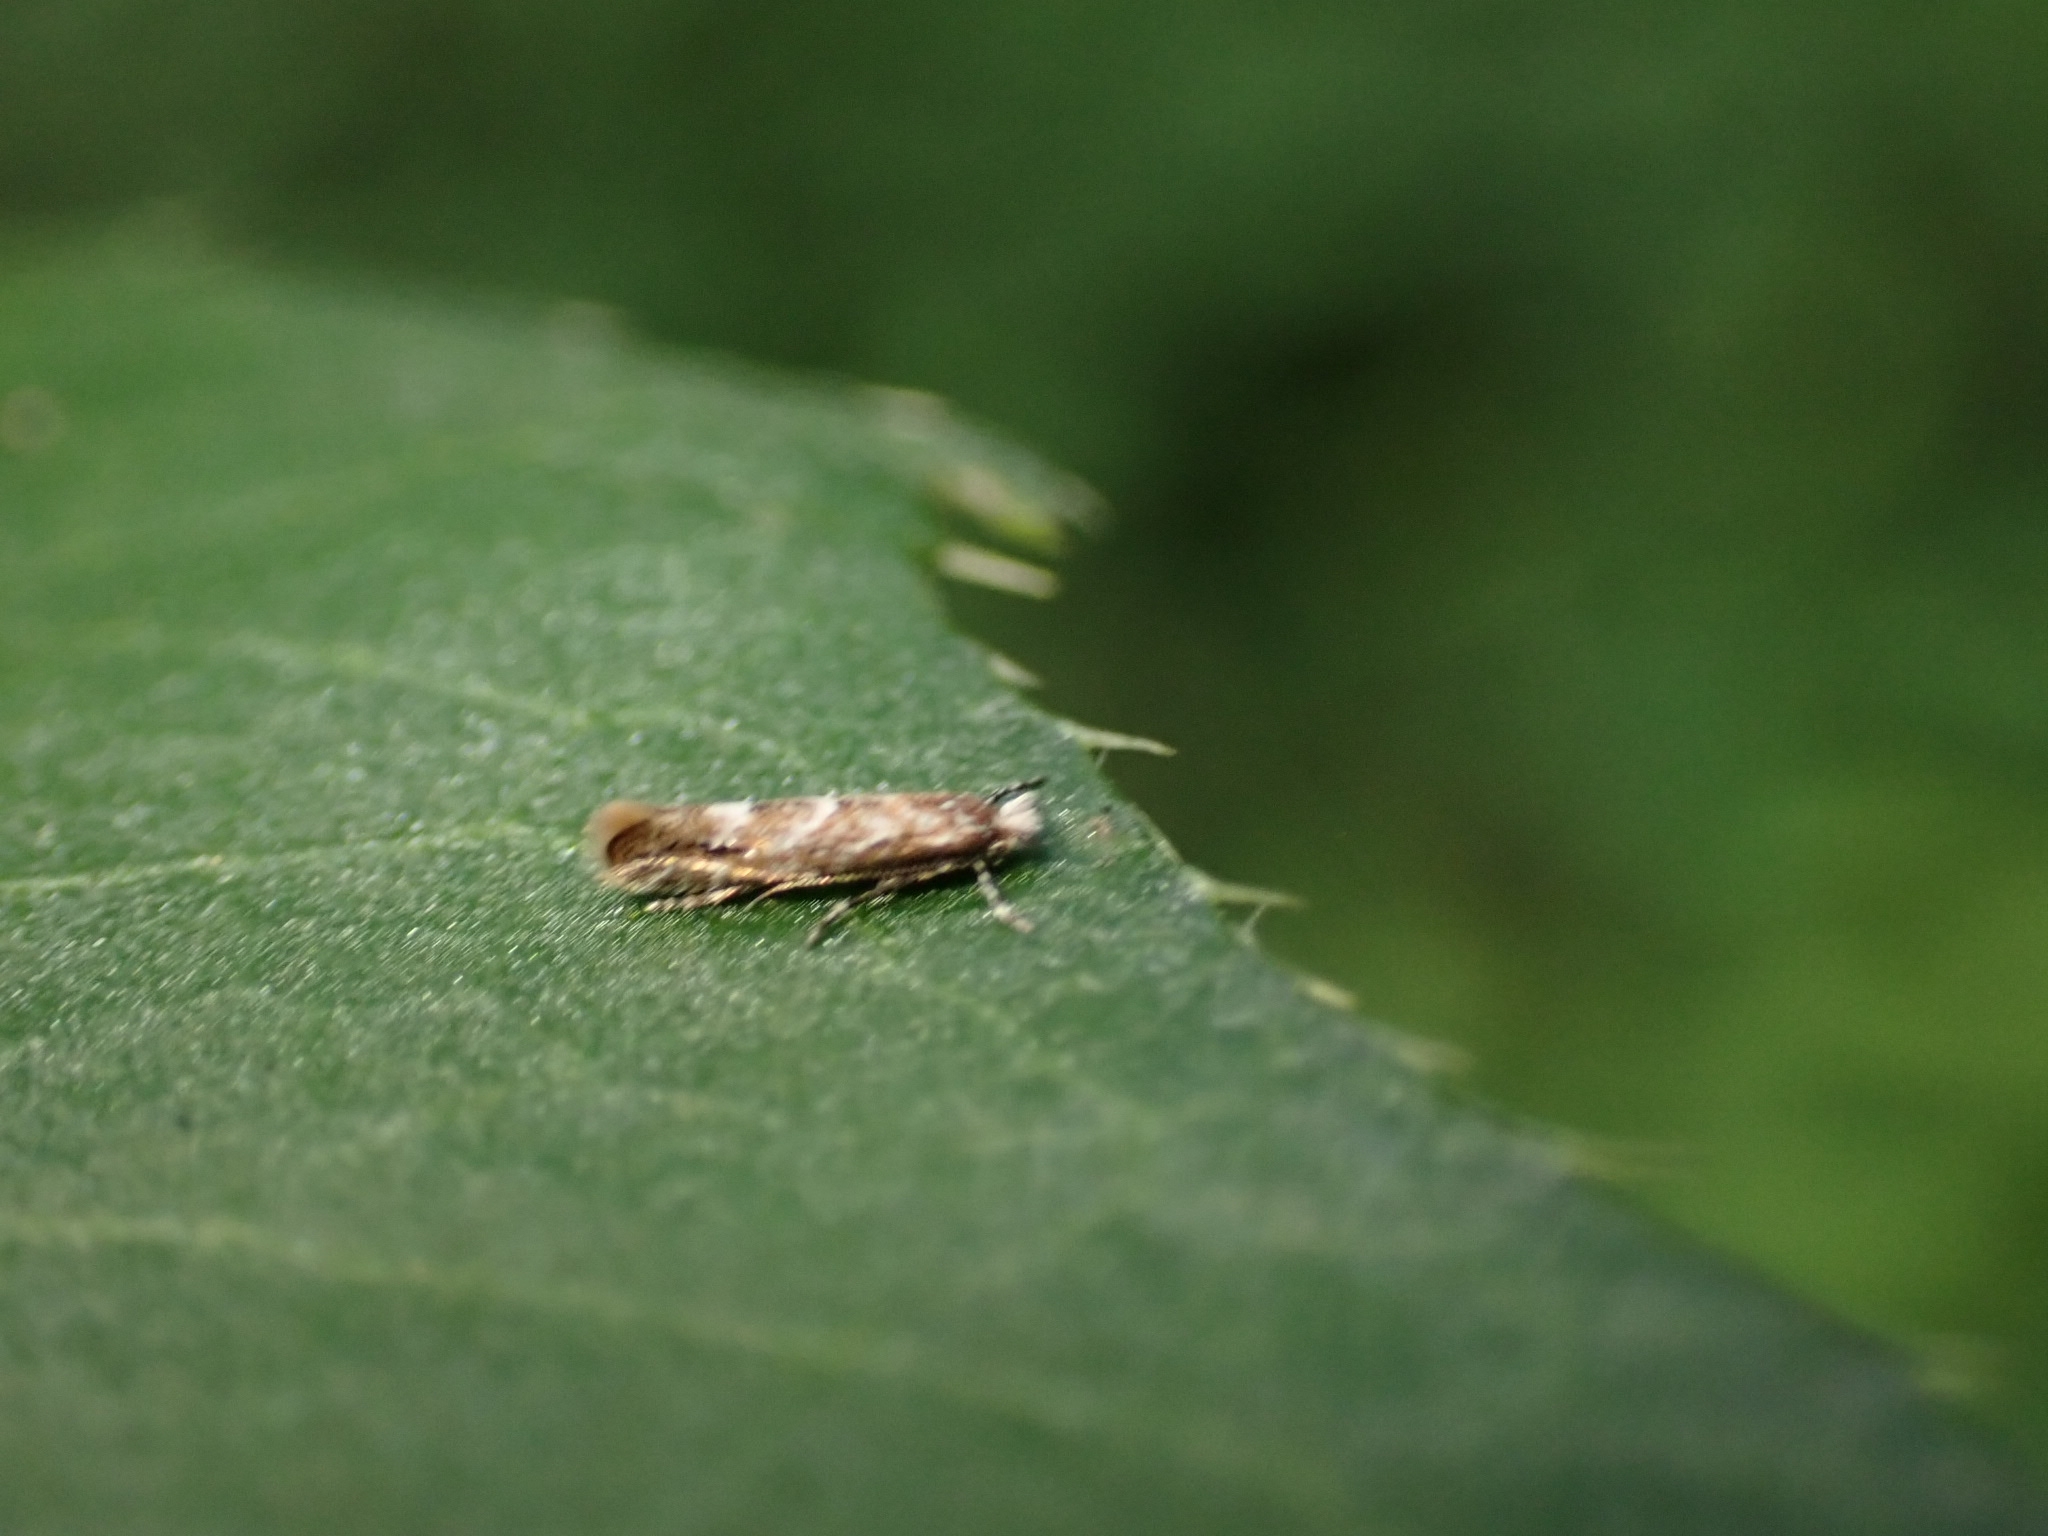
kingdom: Animalia
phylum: Arthropoda
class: Insecta
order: Lepidoptera
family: Gracillariidae
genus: Phyllonorycter
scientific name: Phyllonorycter issikii
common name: Linden midget
